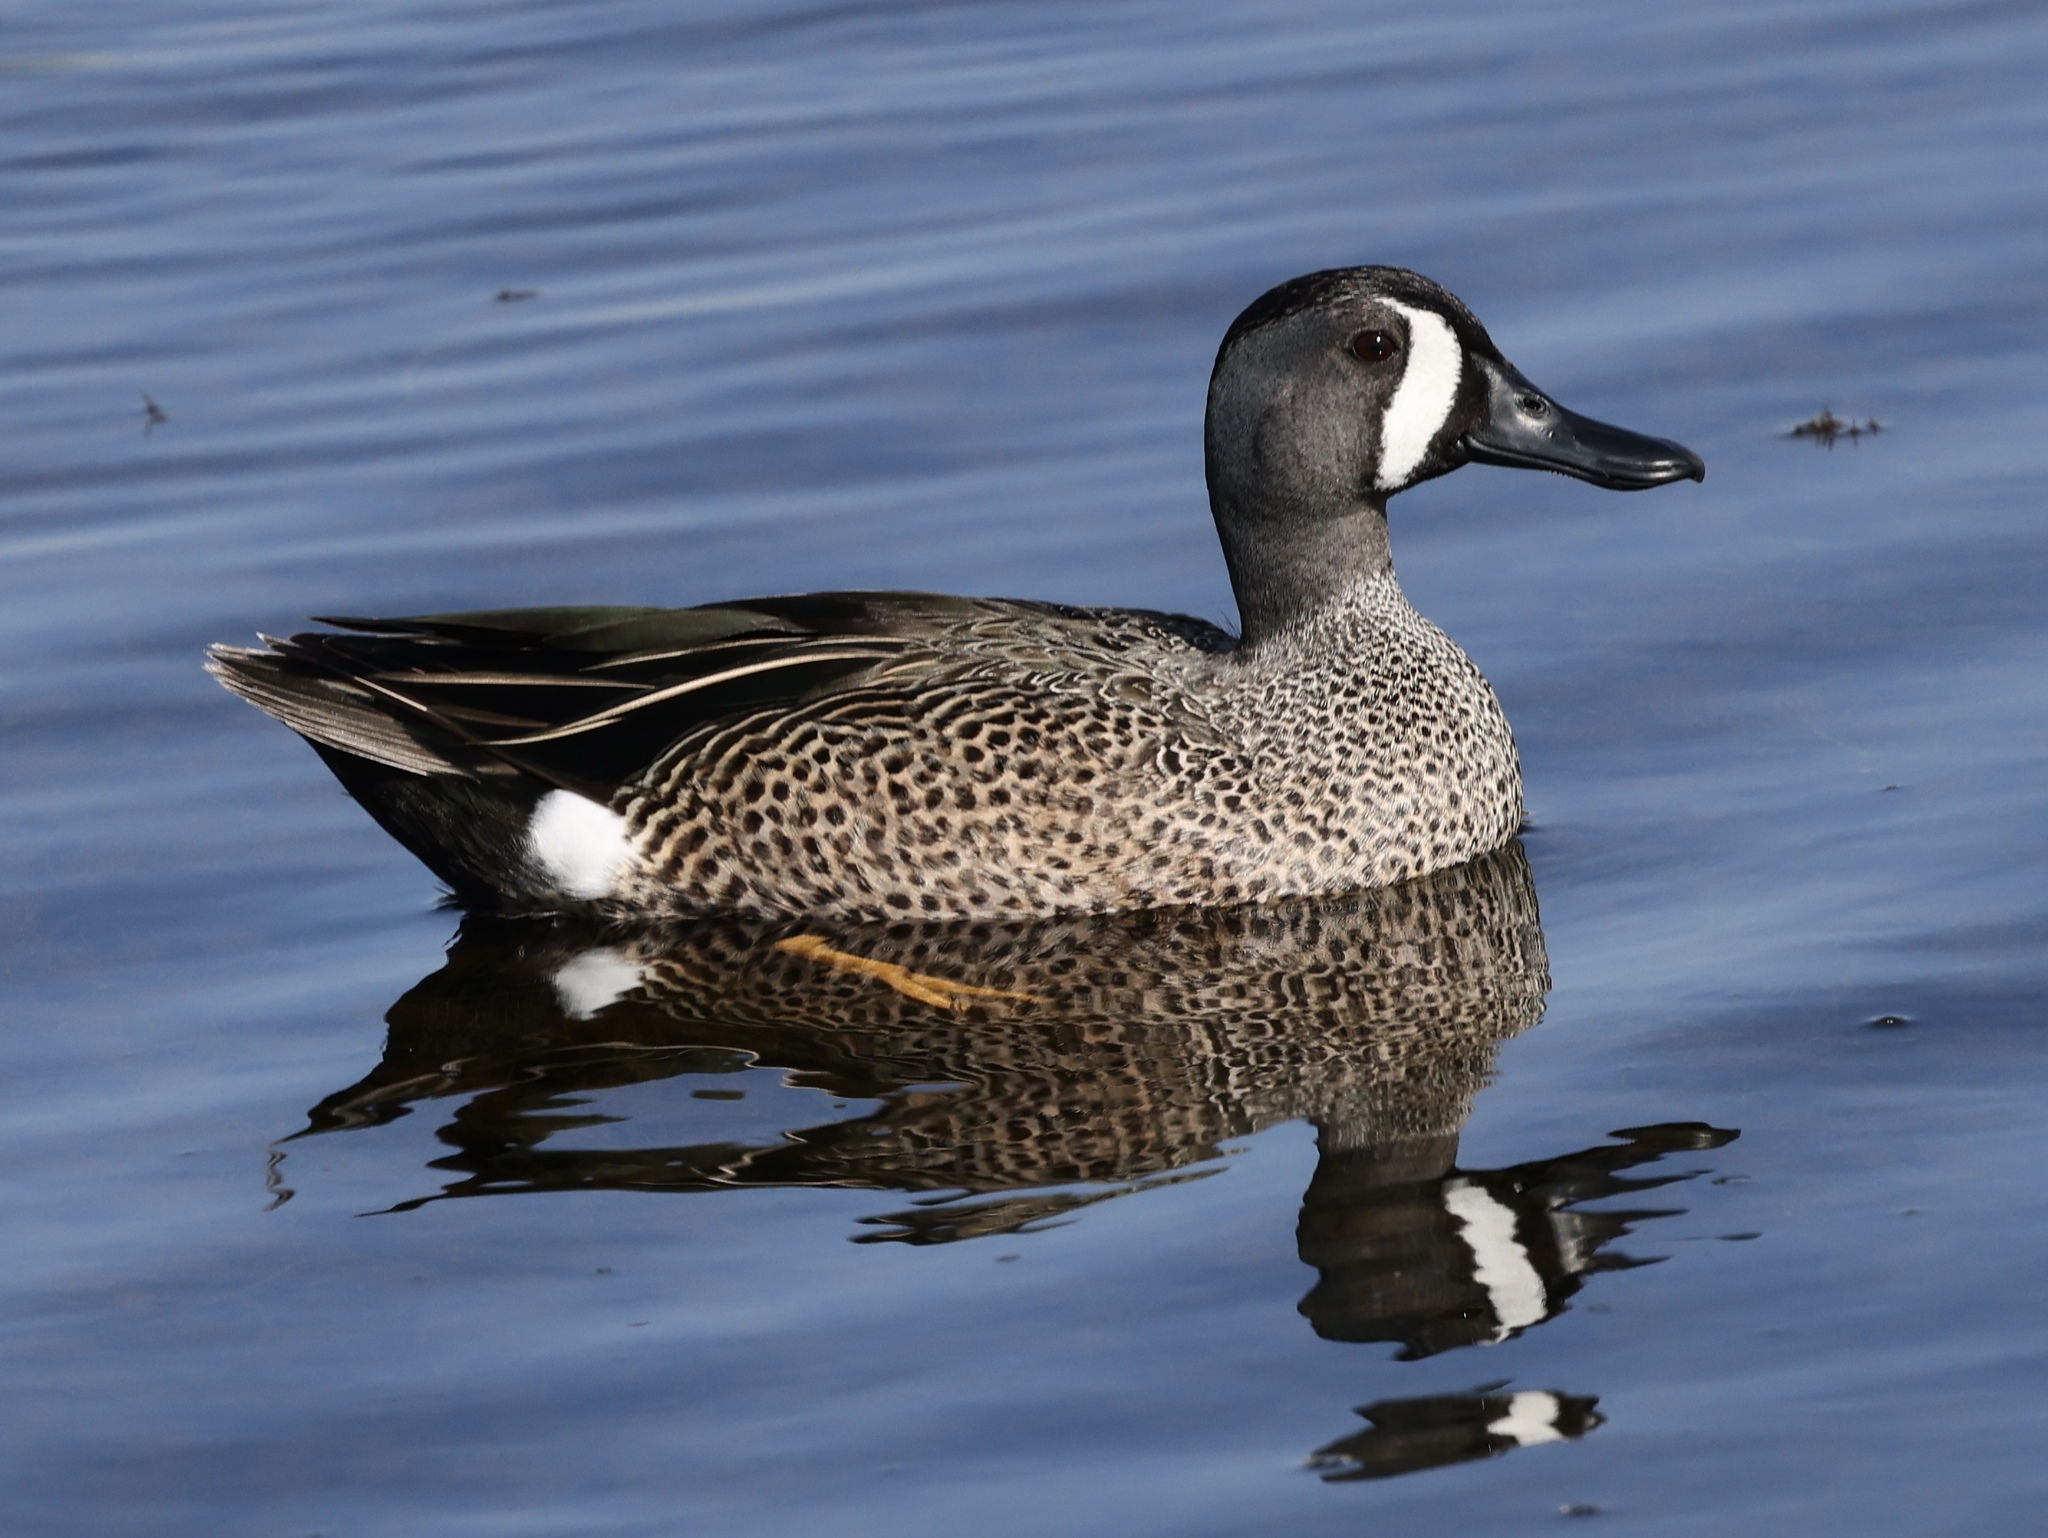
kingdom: Animalia
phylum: Chordata
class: Aves
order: Anseriformes
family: Anatidae
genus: Spatula
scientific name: Spatula discors
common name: Blue-winged teal
